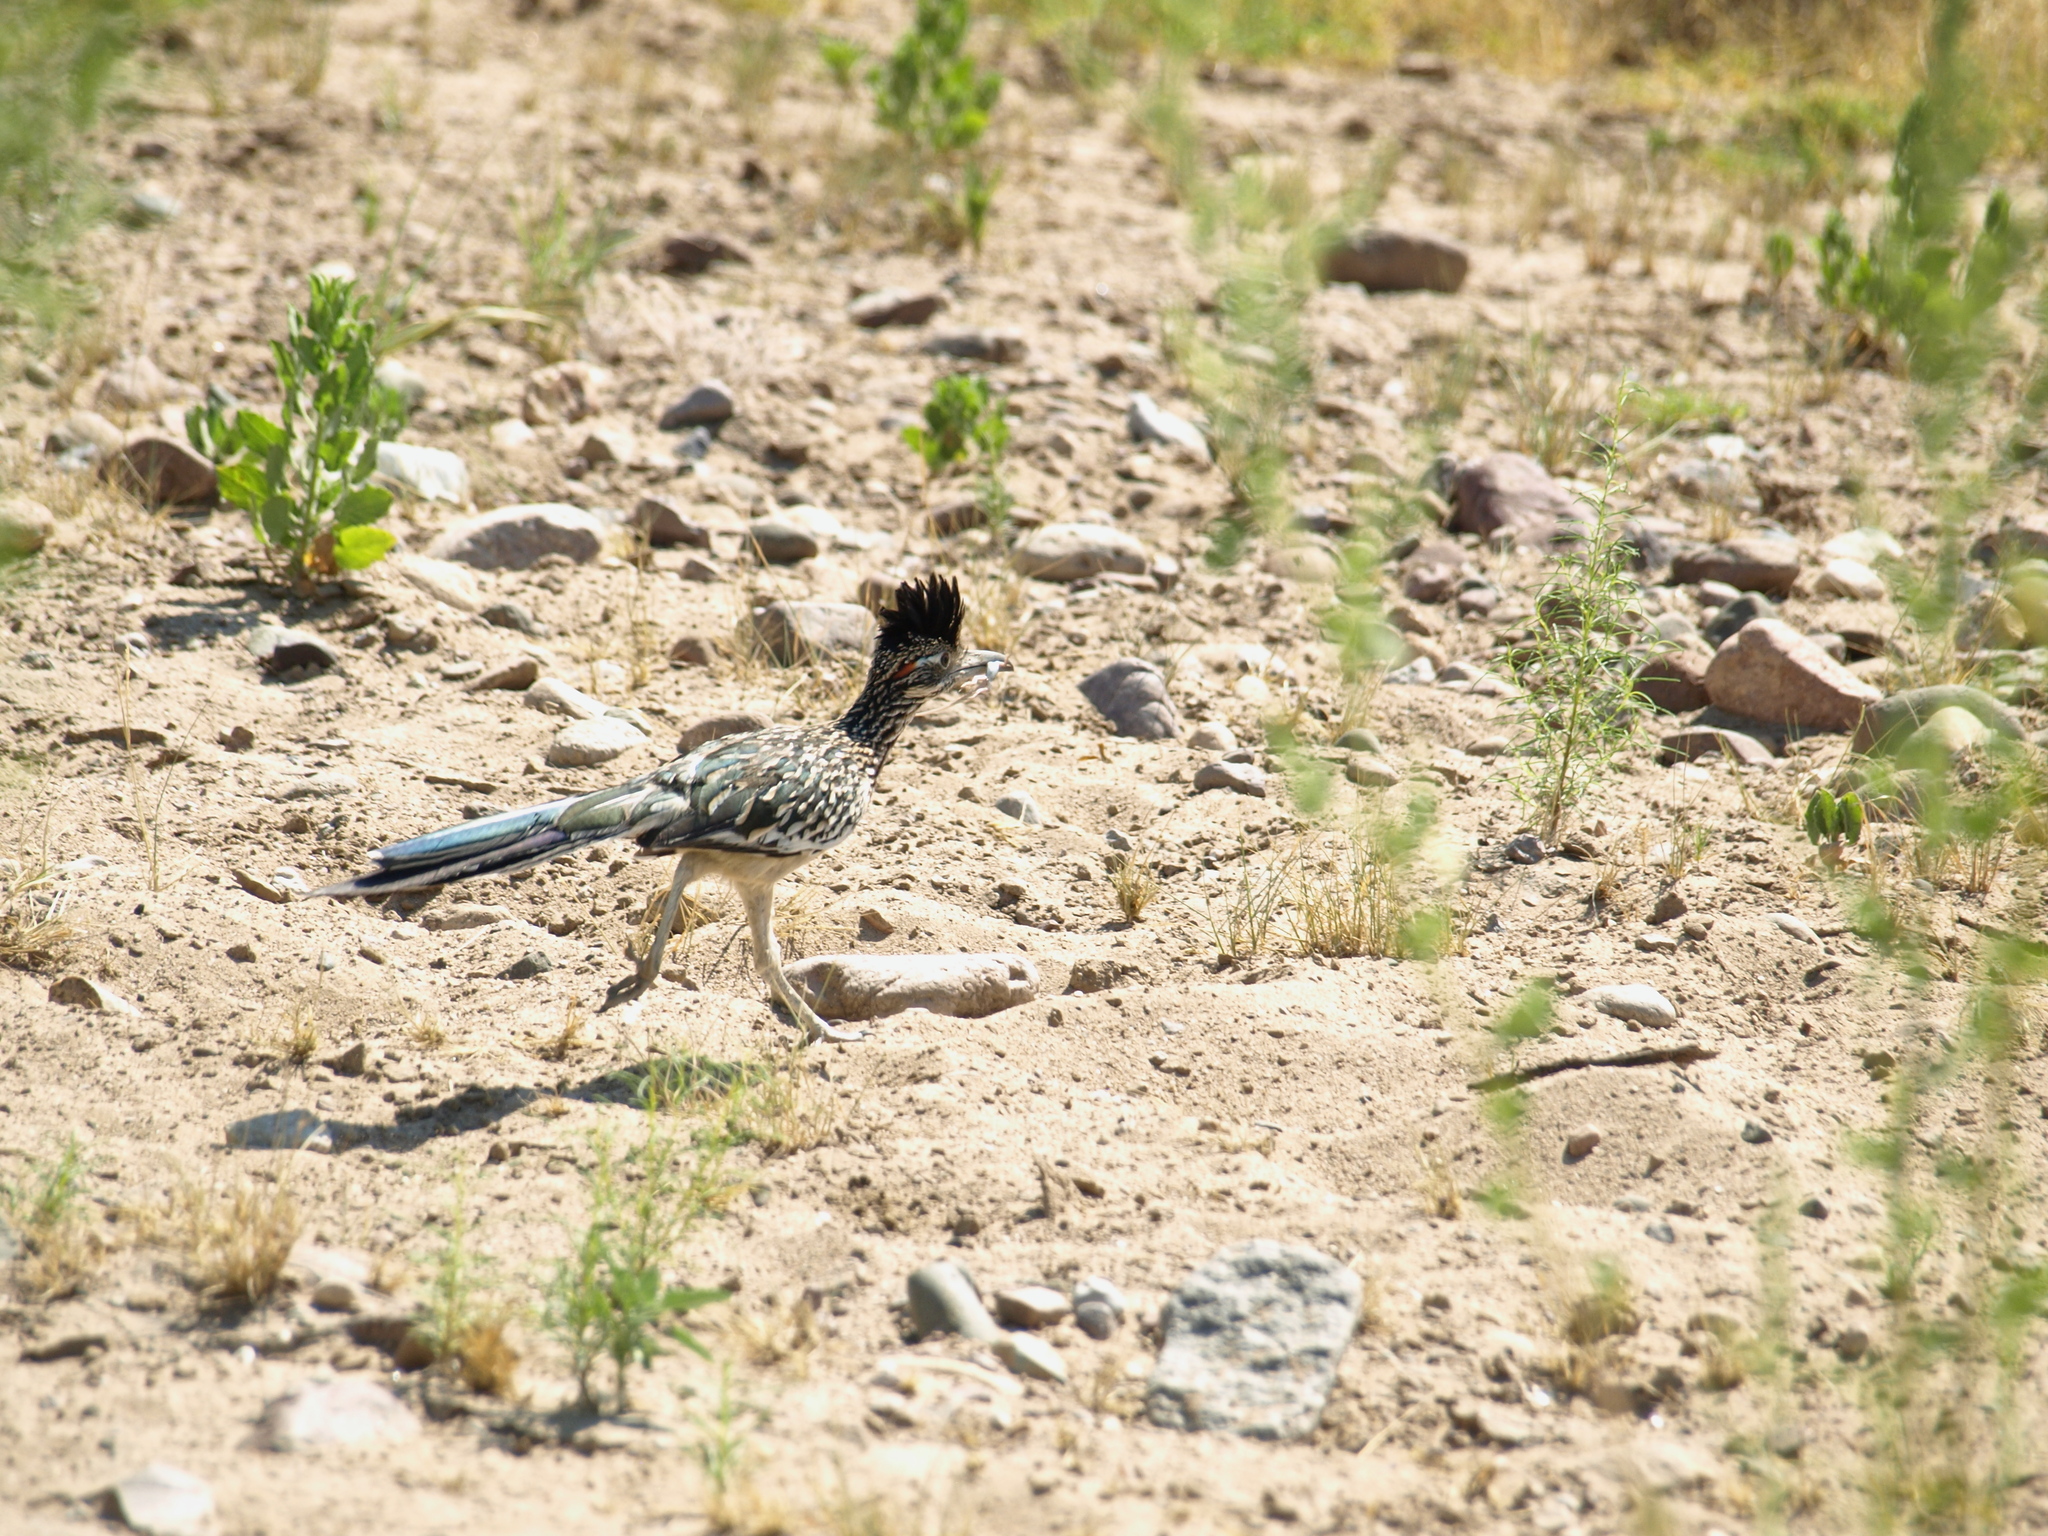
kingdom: Animalia
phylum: Chordata
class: Aves
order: Cuculiformes
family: Cuculidae
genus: Geococcyx
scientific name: Geococcyx californianus
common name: Greater roadrunner
